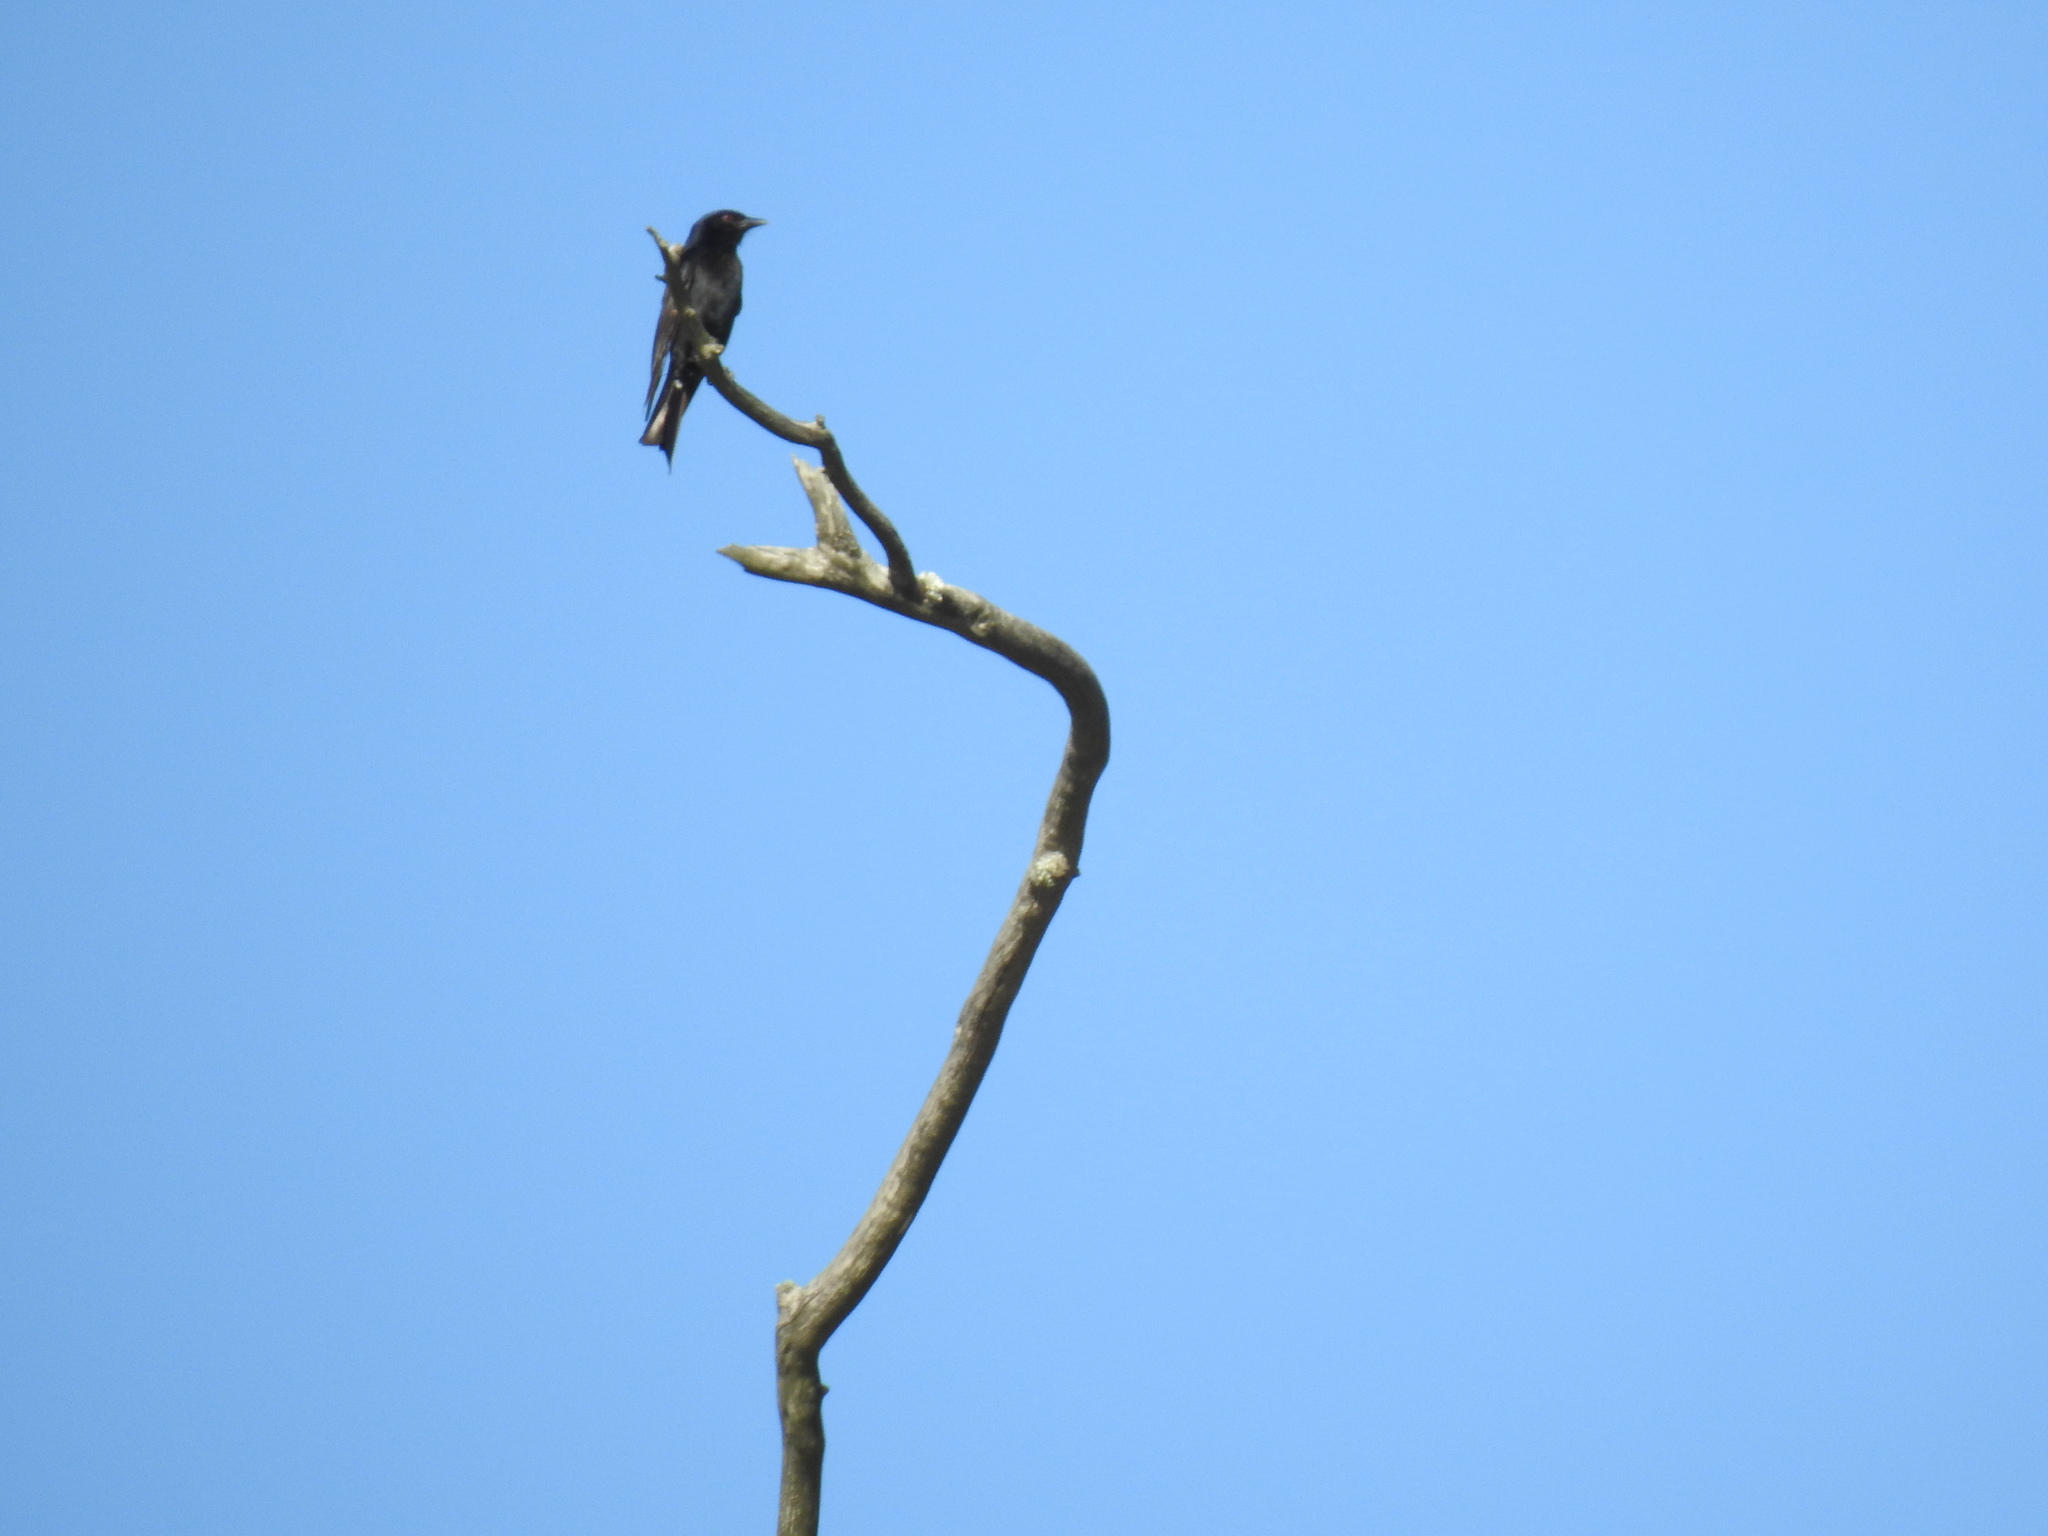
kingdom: Animalia
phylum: Chordata
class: Aves
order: Passeriformes
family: Dicruridae
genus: Dicrurus
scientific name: Dicrurus adsimilis
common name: Fork-tailed drongo
